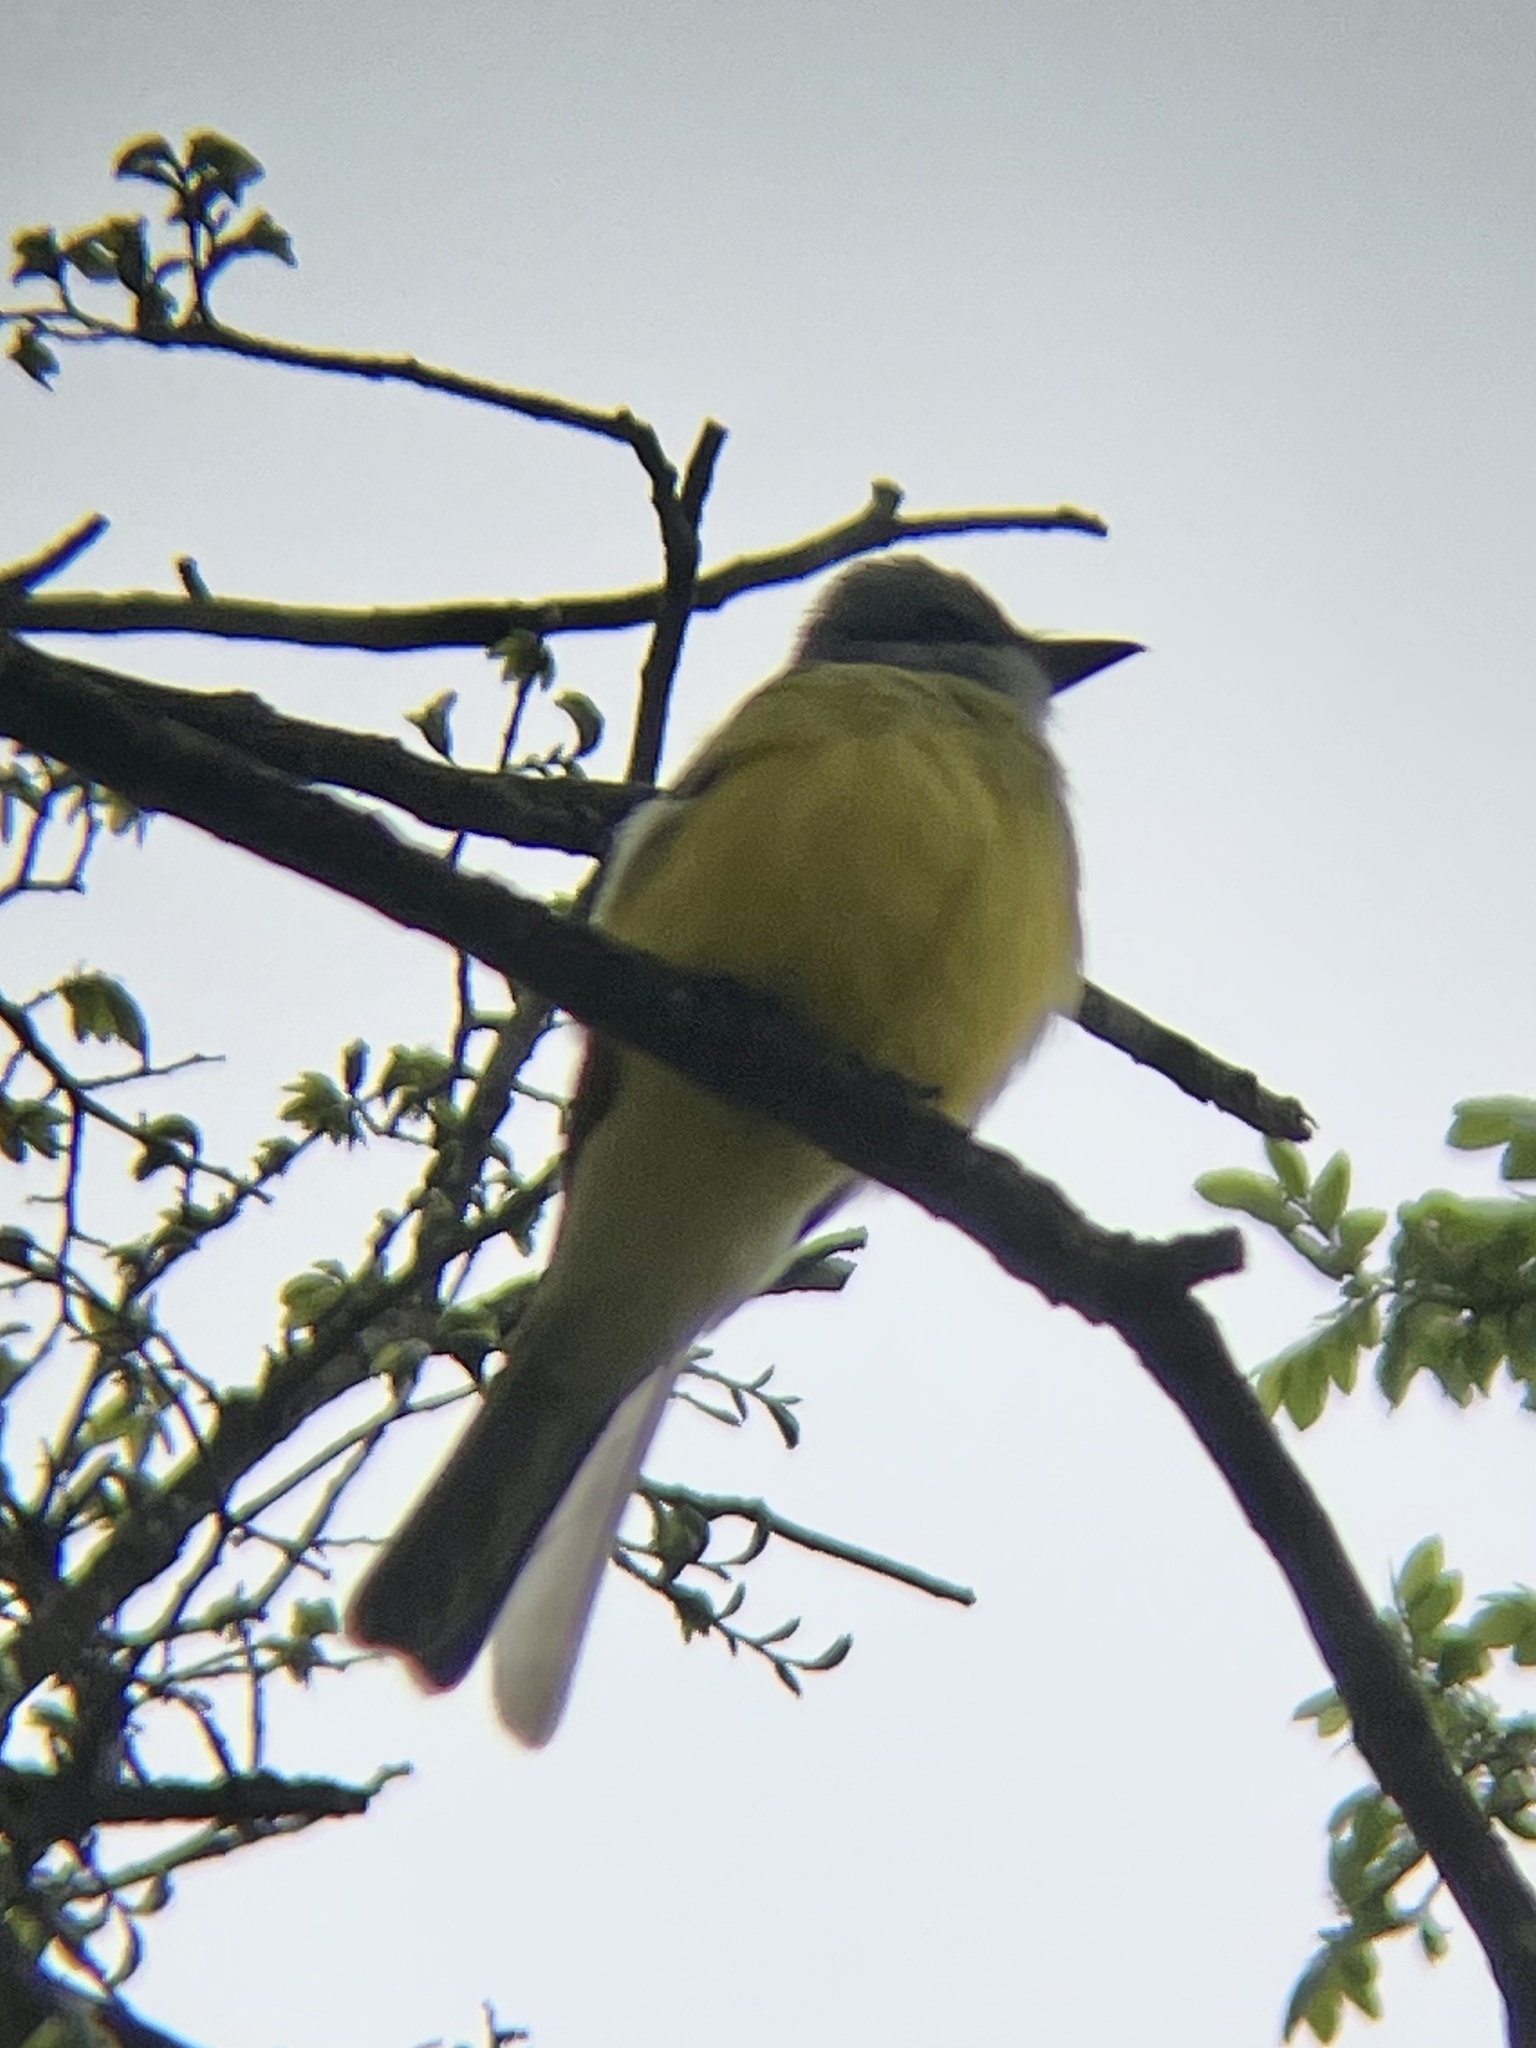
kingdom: Animalia
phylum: Chordata
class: Aves
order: Passeriformes
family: Tyrannidae
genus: Tyrannus
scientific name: Tyrannus couchii
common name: Couch's kingbird
